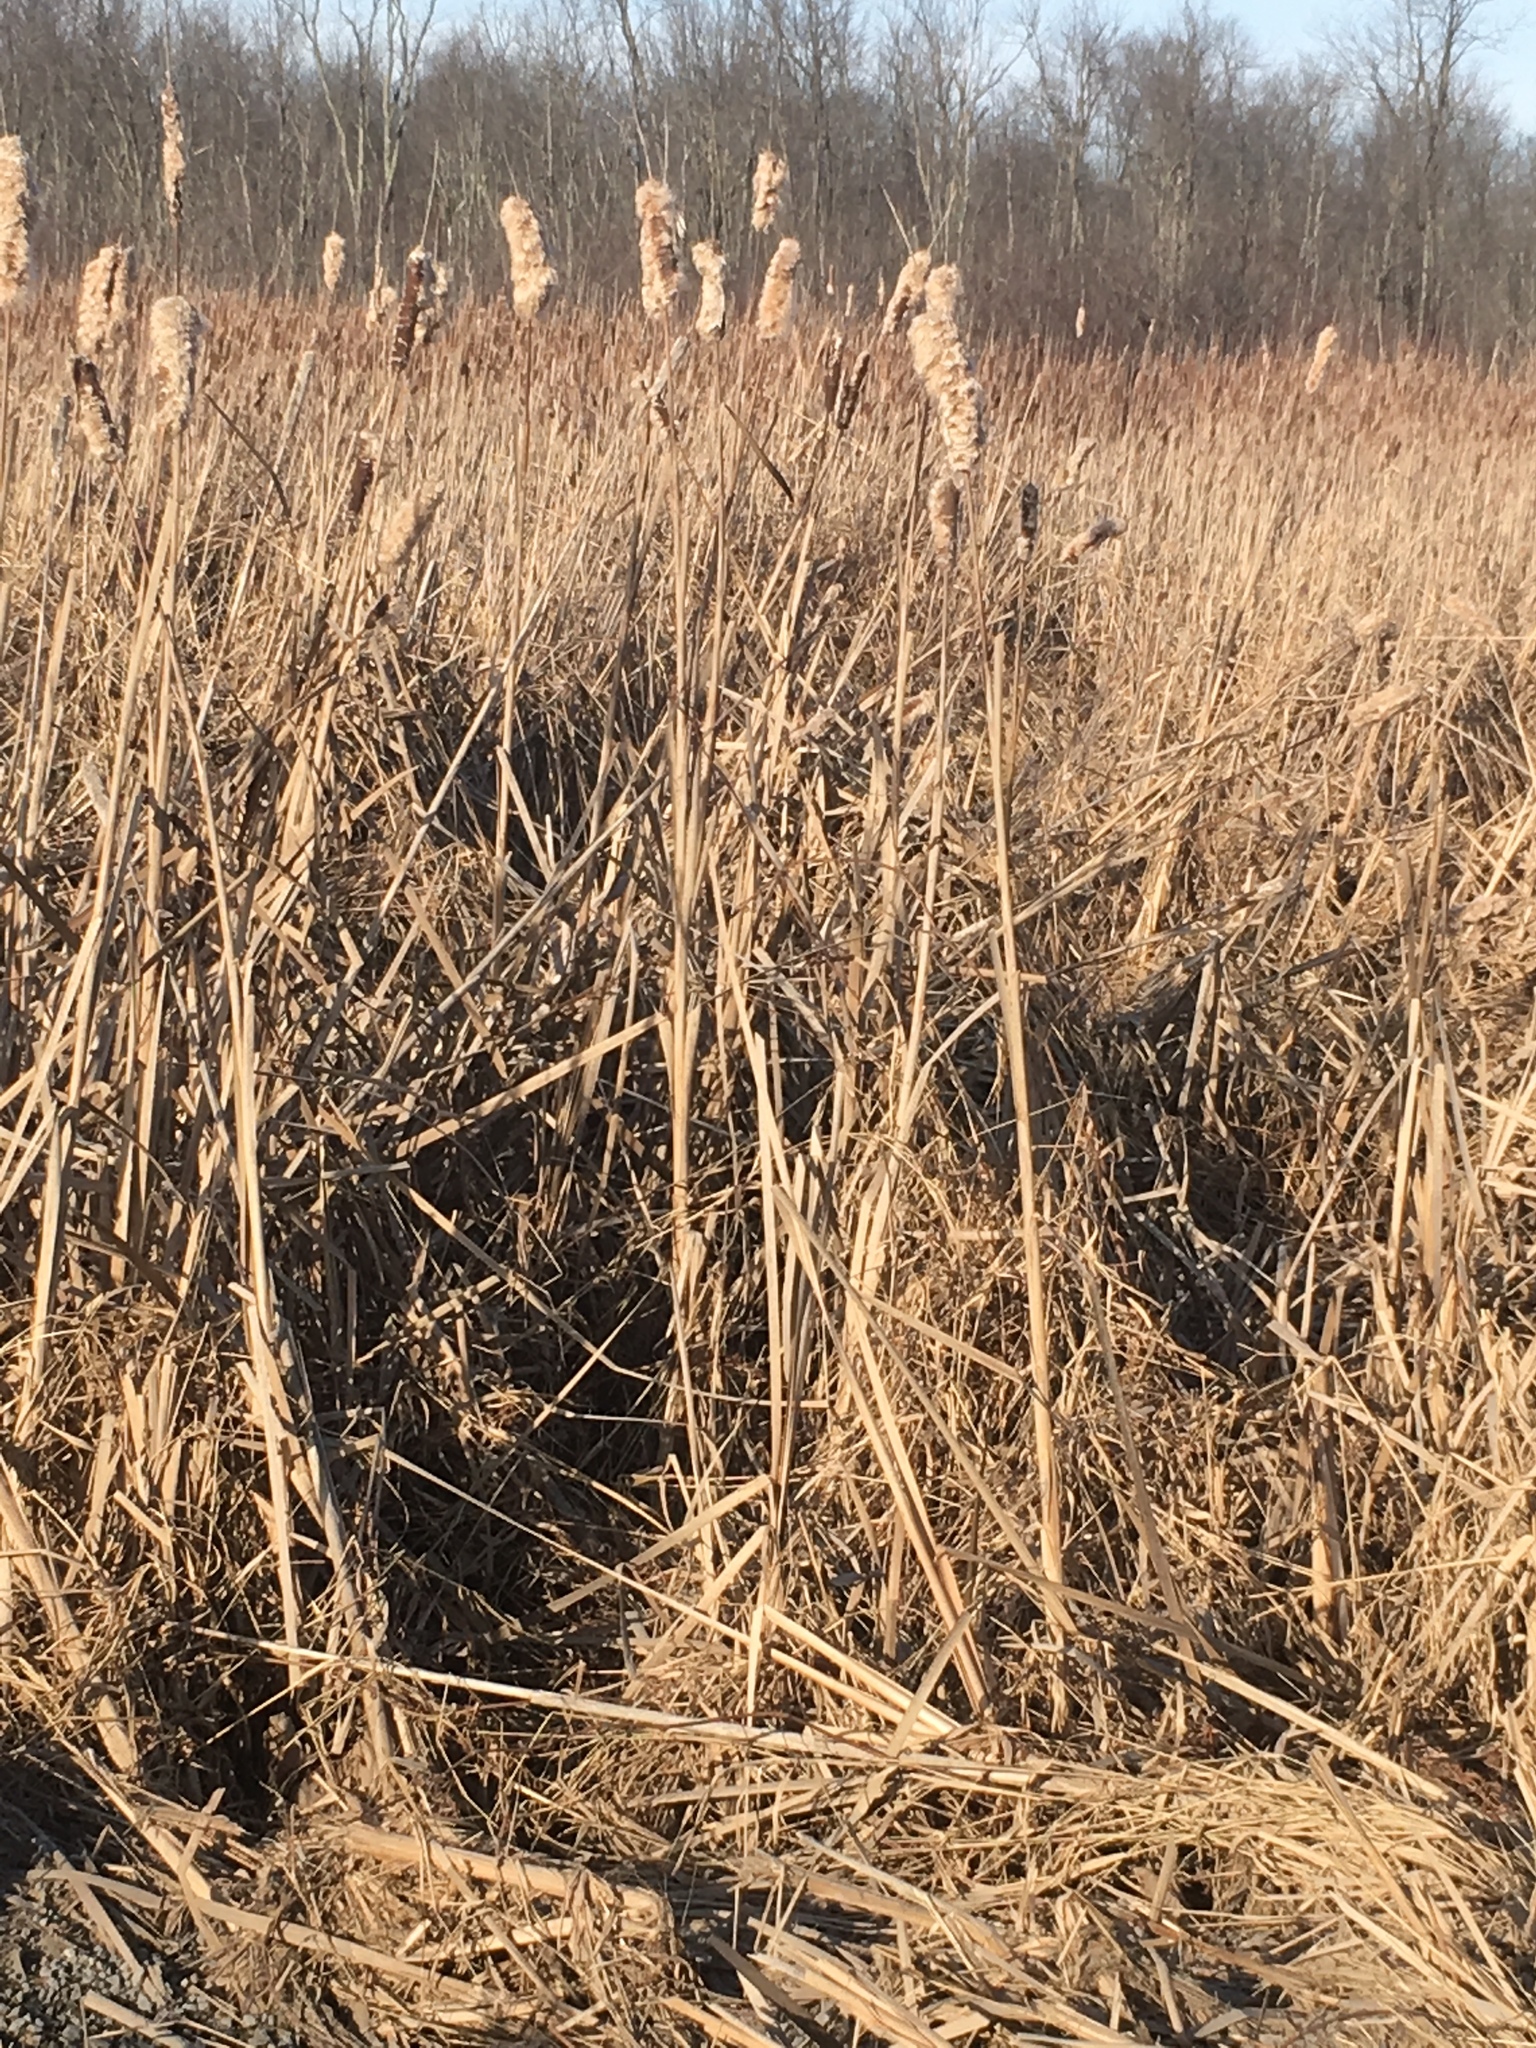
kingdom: Plantae
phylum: Tracheophyta
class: Liliopsida
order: Poales
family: Typhaceae
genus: Typha
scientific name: Typha latifolia
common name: Broadleaf cattail
